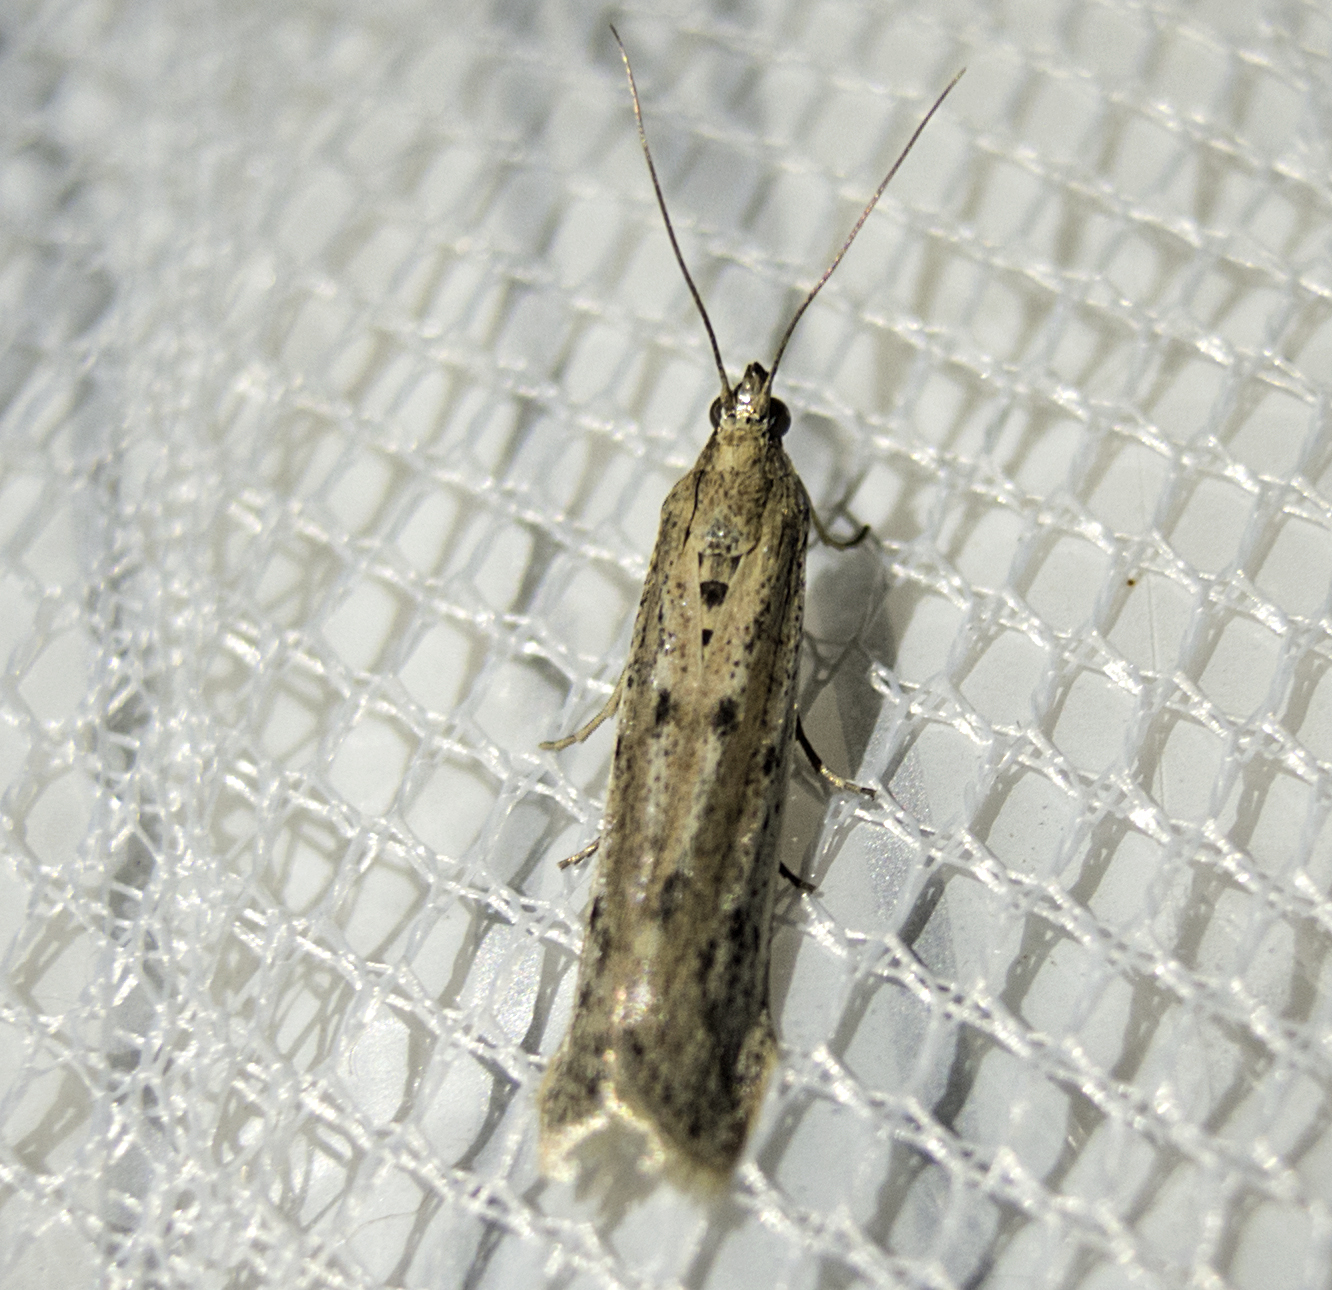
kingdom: Animalia
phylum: Arthropoda
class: Insecta
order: Lepidoptera
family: Pyralidae
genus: Phycitodes
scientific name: Phycitodes
